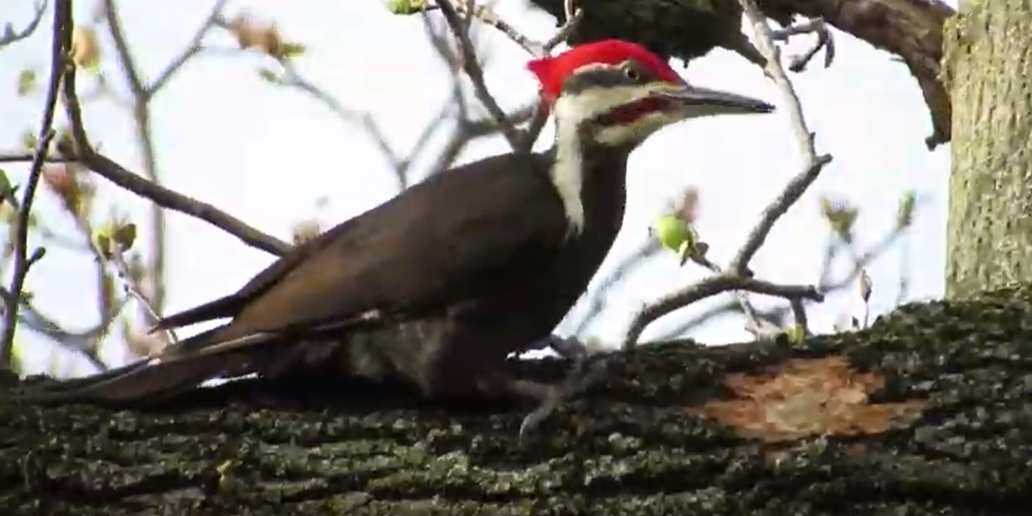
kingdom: Animalia
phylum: Chordata
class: Aves
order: Piciformes
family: Picidae
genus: Dryocopus
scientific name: Dryocopus pileatus
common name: Pileated woodpecker
